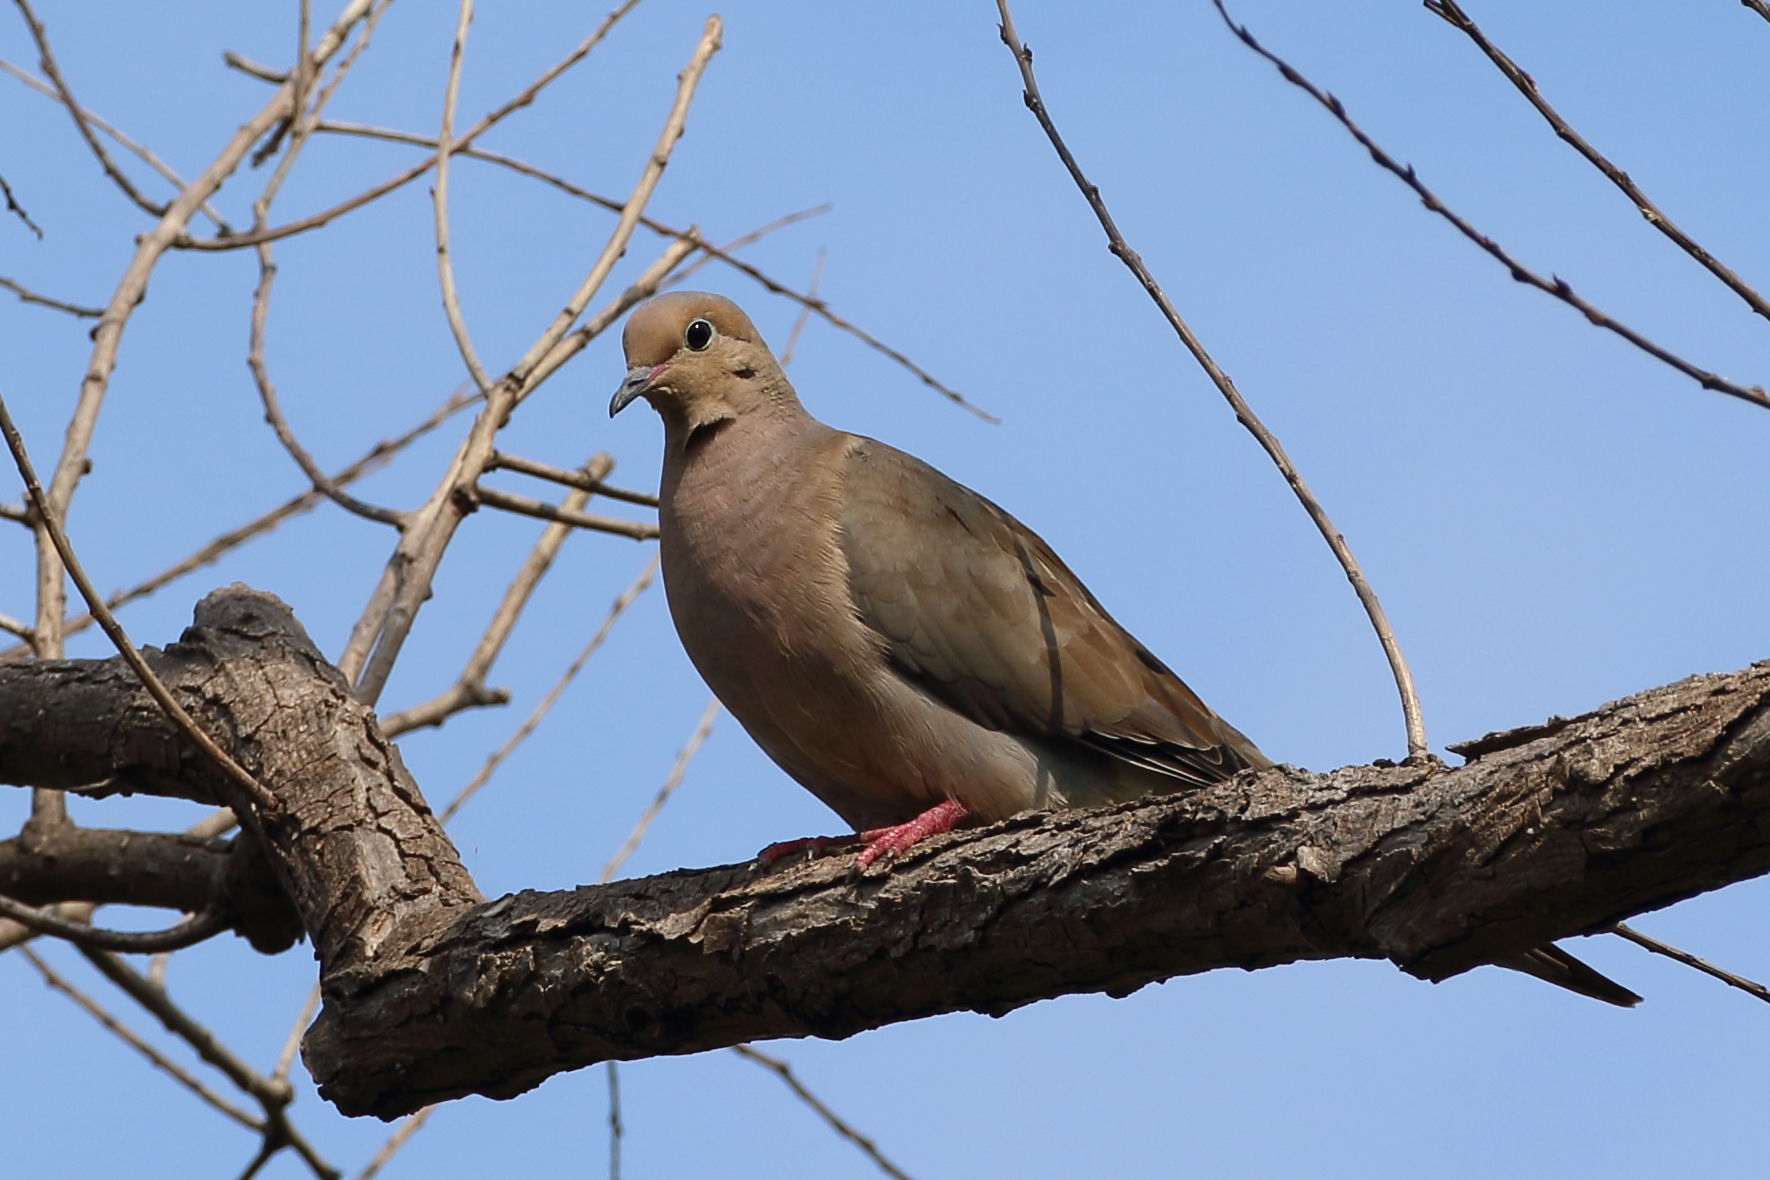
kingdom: Animalia
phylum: Chordata
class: Aves
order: Columbiformes
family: Columbidae
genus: Zenaida
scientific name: Zenaida macroura
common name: Mourning dove
